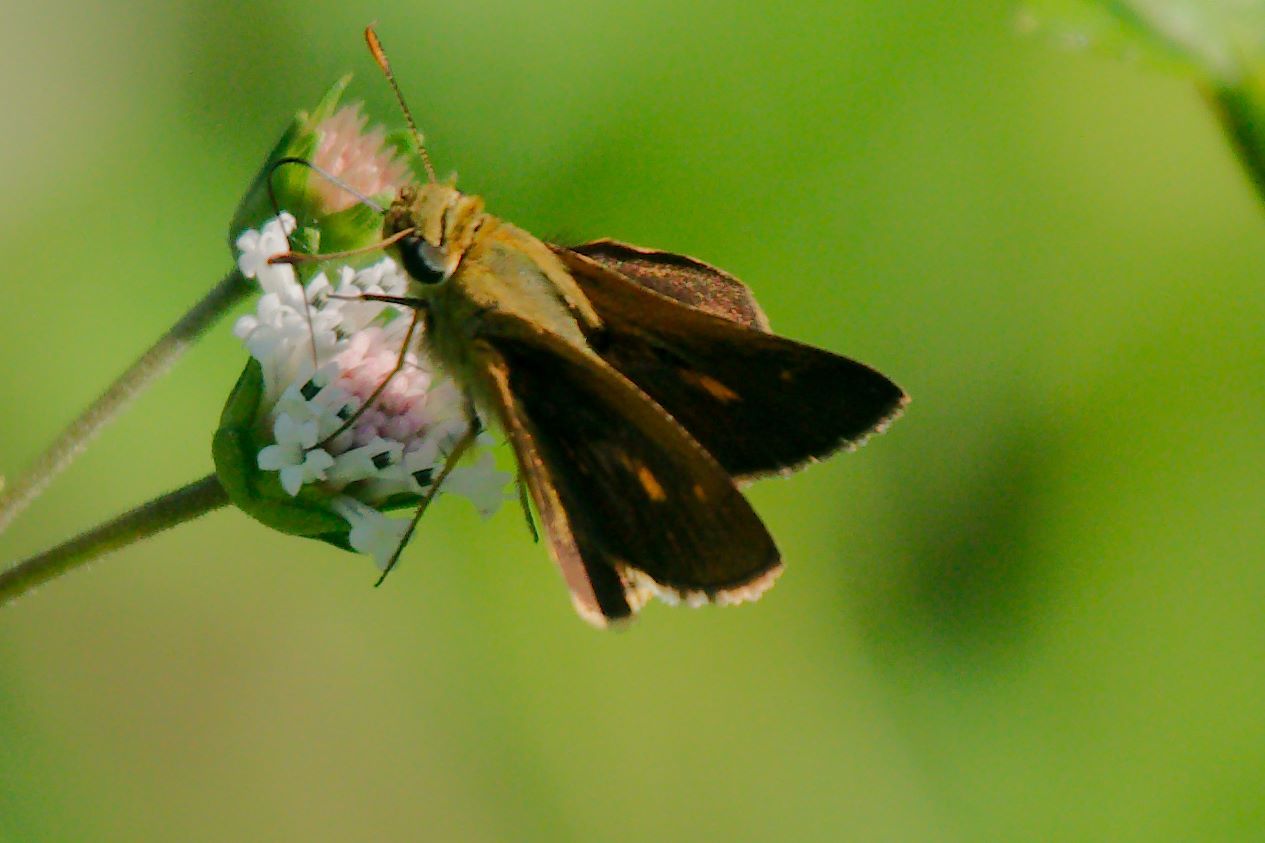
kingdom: Animalia
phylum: Arthropoda
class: Insecta
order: Lepidoptera
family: Hesperiidae
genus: Polites
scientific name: Polites otho
